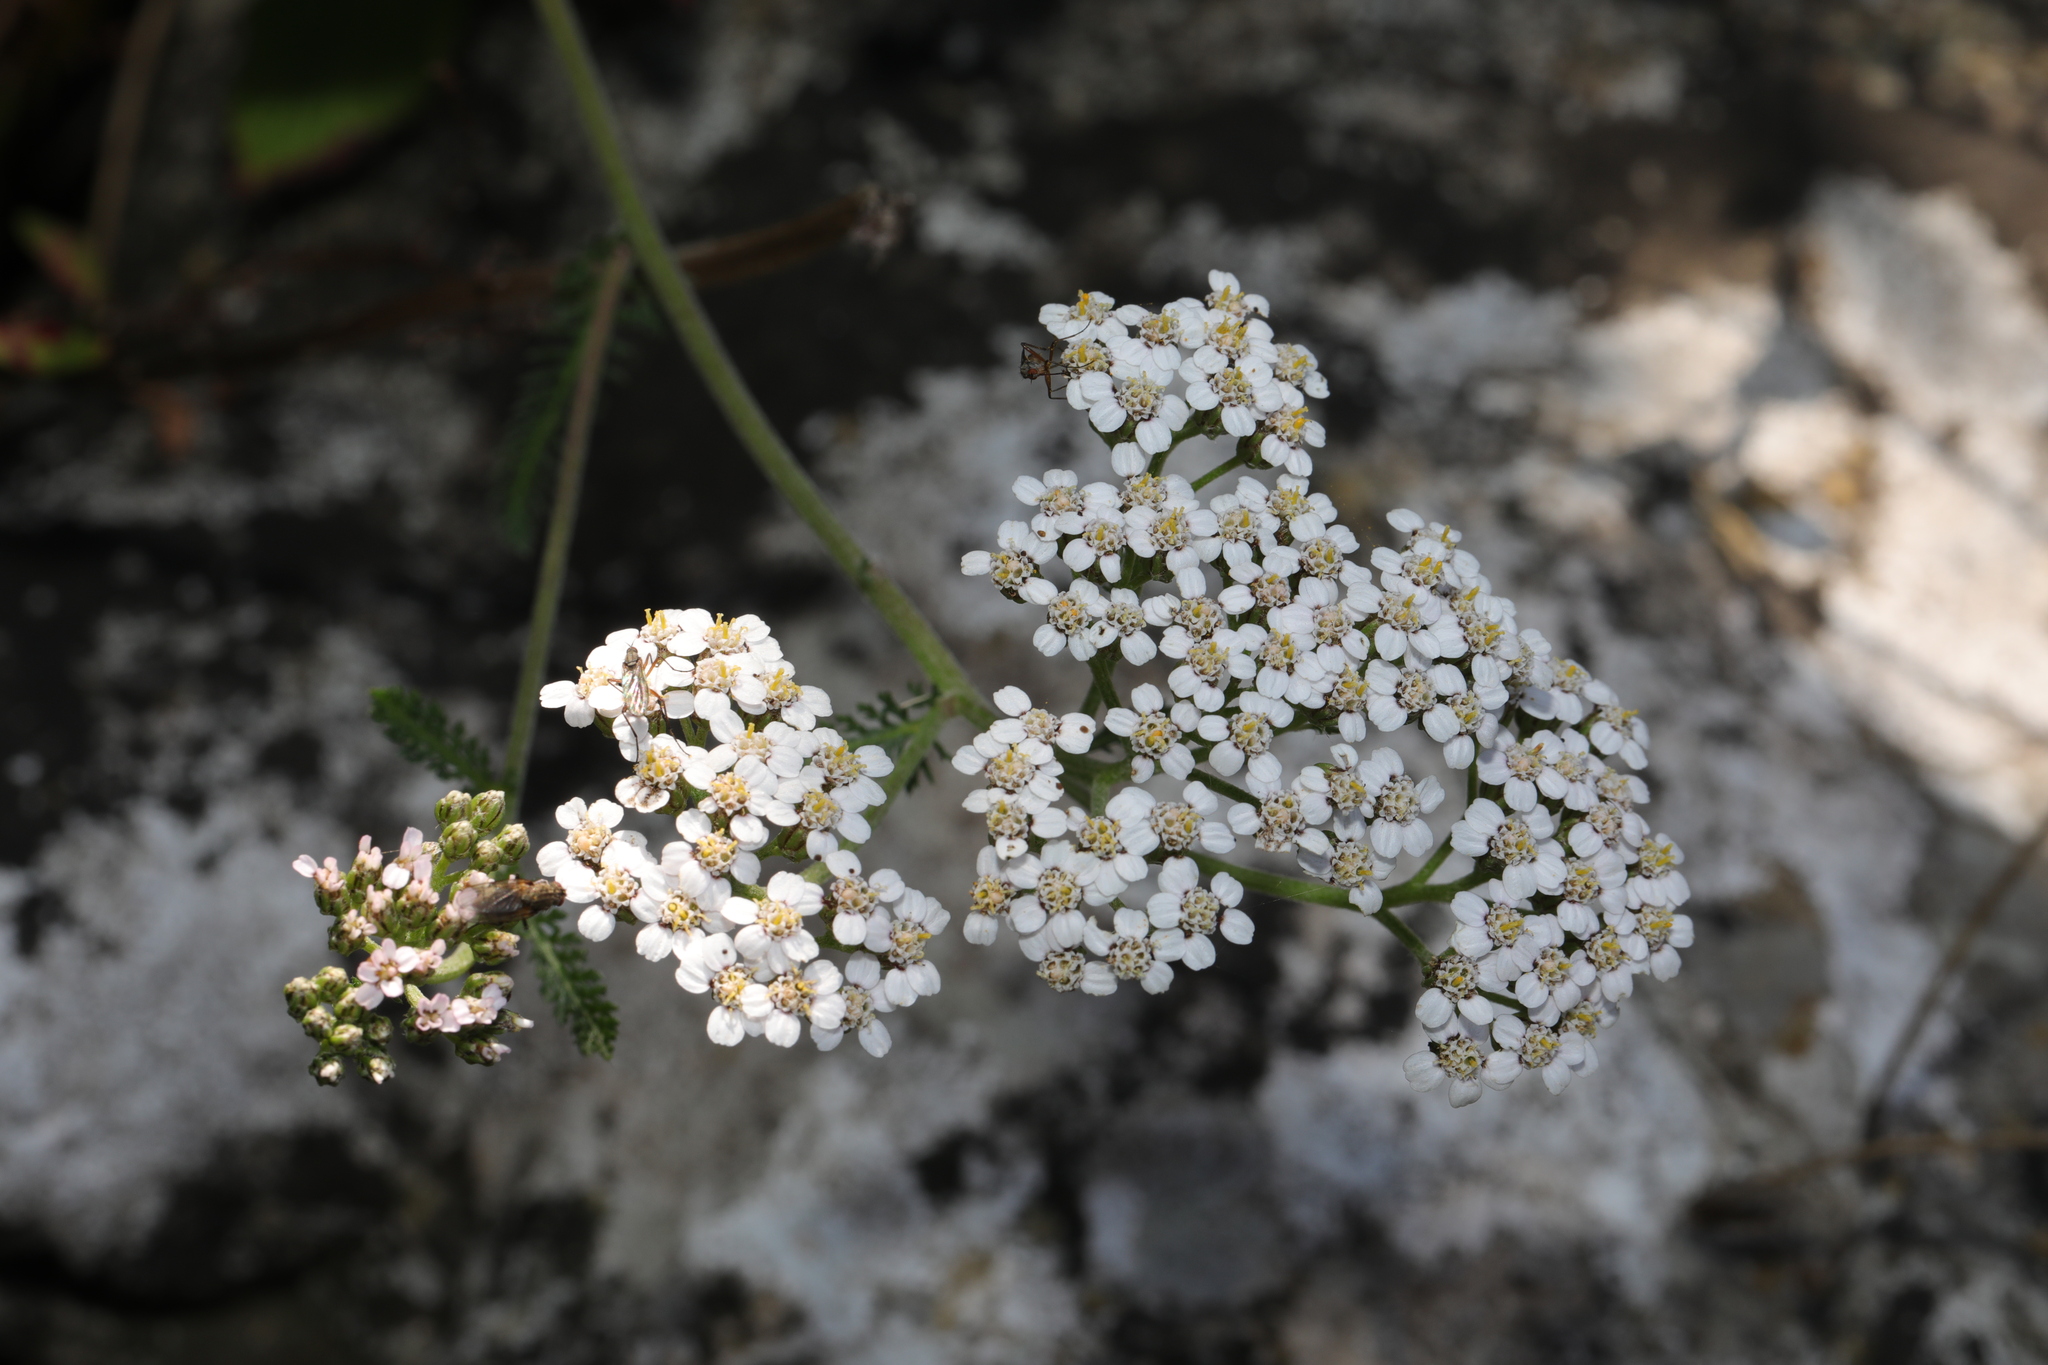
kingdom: Plantae
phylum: Tracheophyta
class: Magnoliopsida
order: Asterales
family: Asteraceae
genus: Achillea
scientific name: Achillea millefolium
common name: Yarrow
